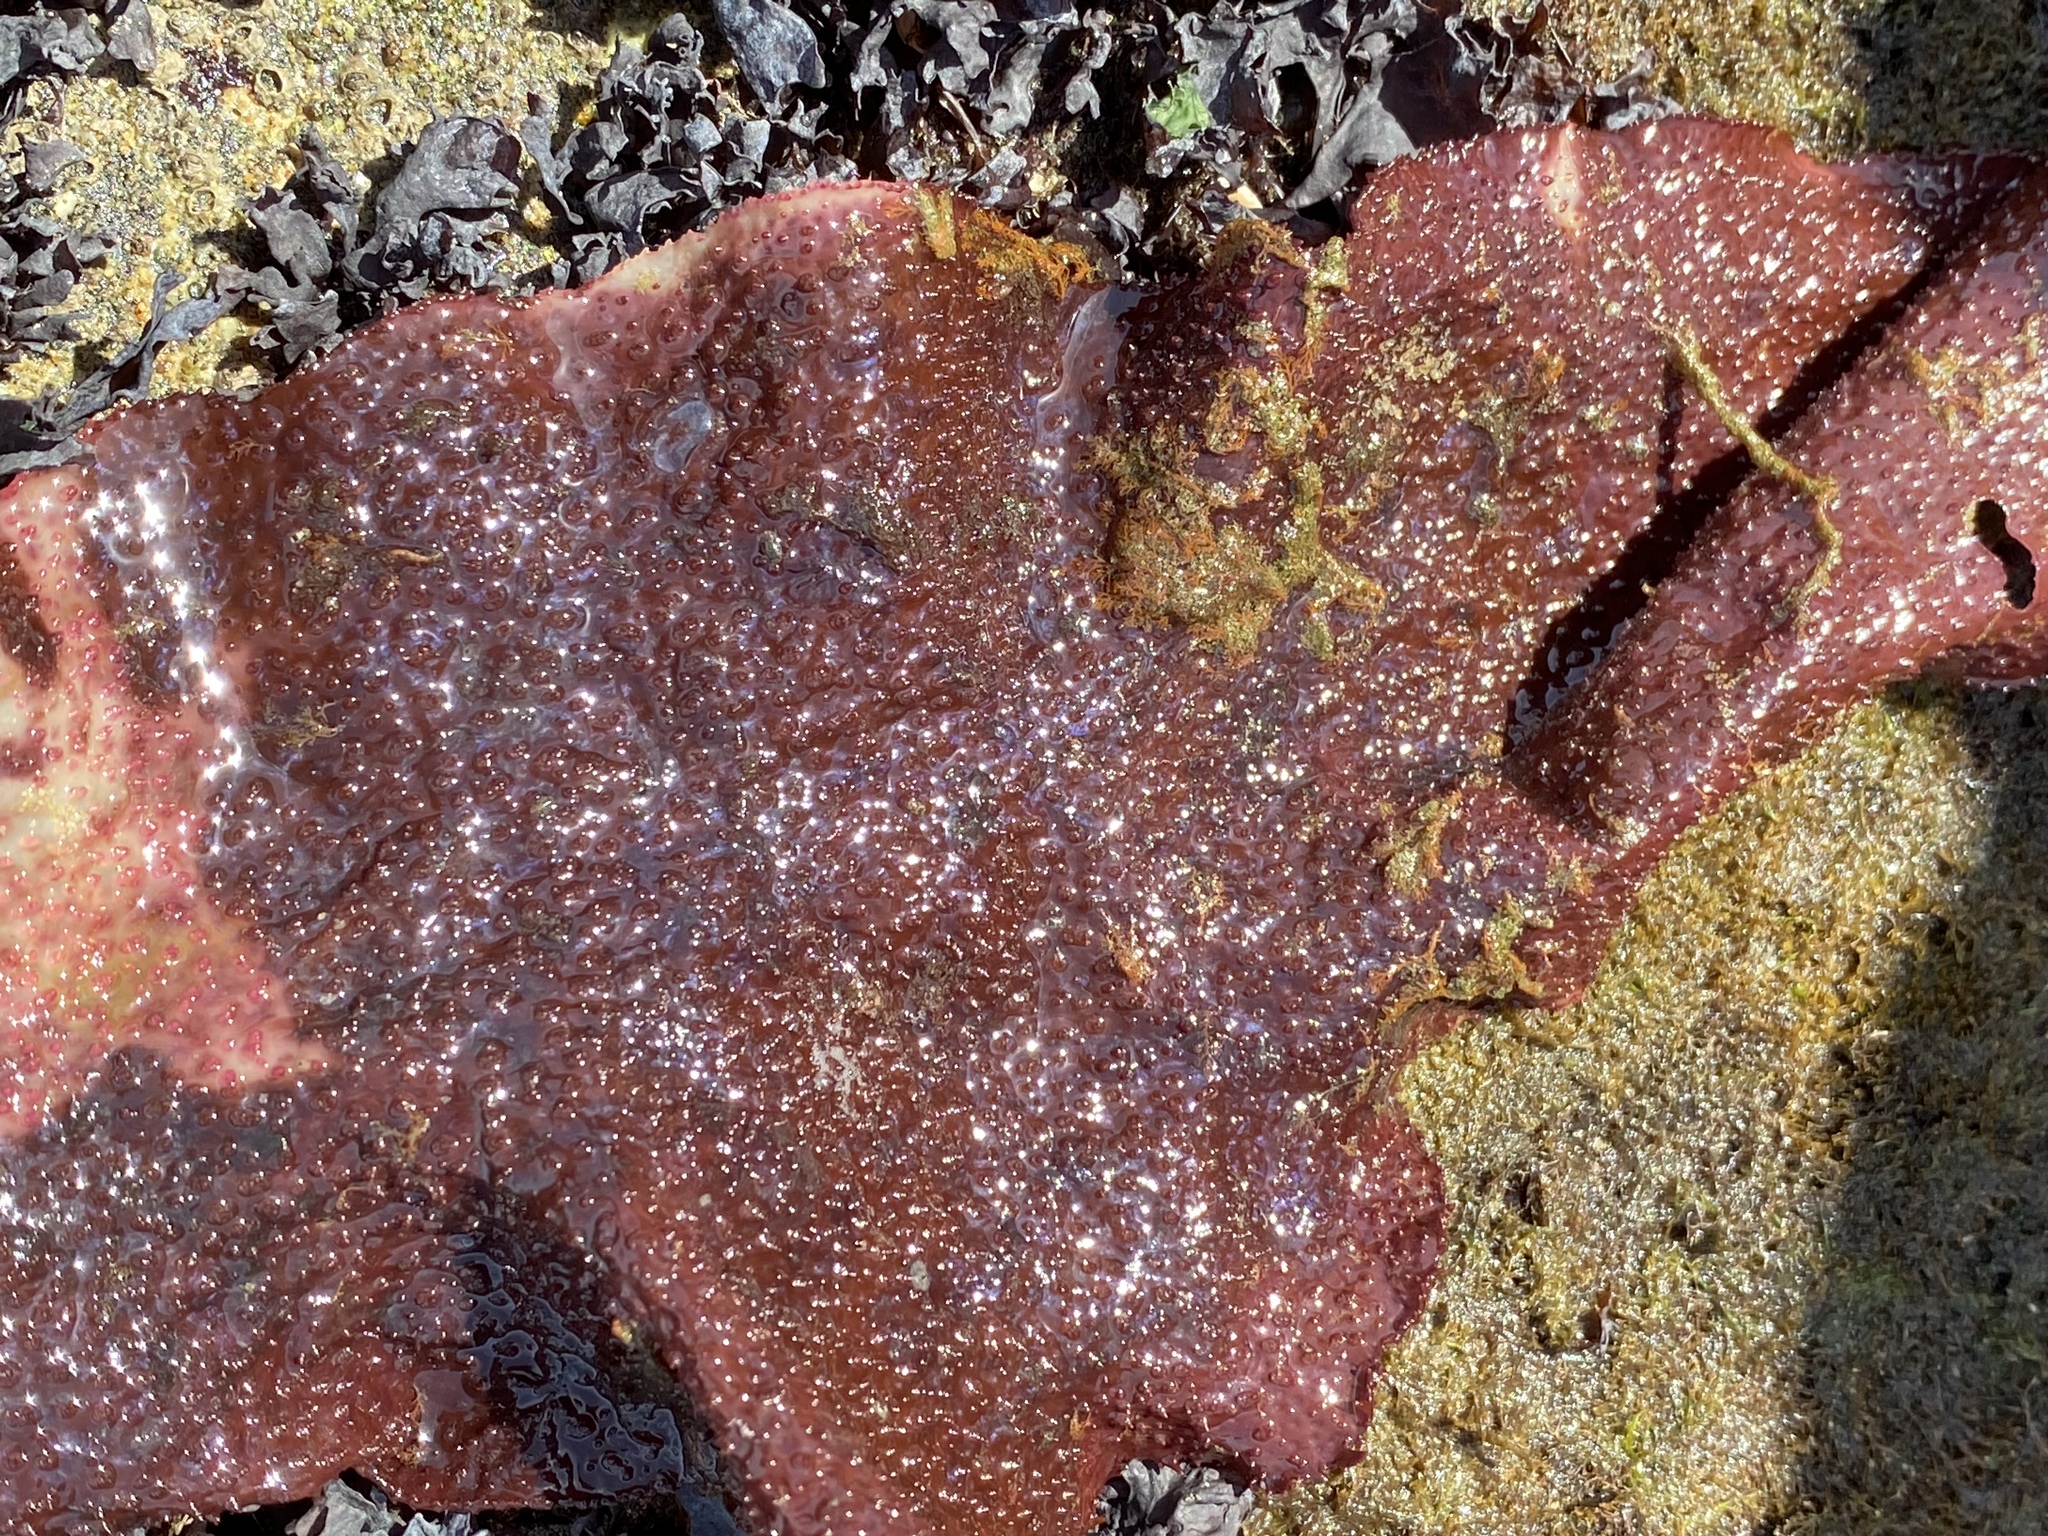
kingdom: Plantae
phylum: Rhodophyta
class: Florideophyceae
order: Gigartinales
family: Gigartinaceae
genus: Chondracanthus
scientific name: Chondracanthus exasperatus
